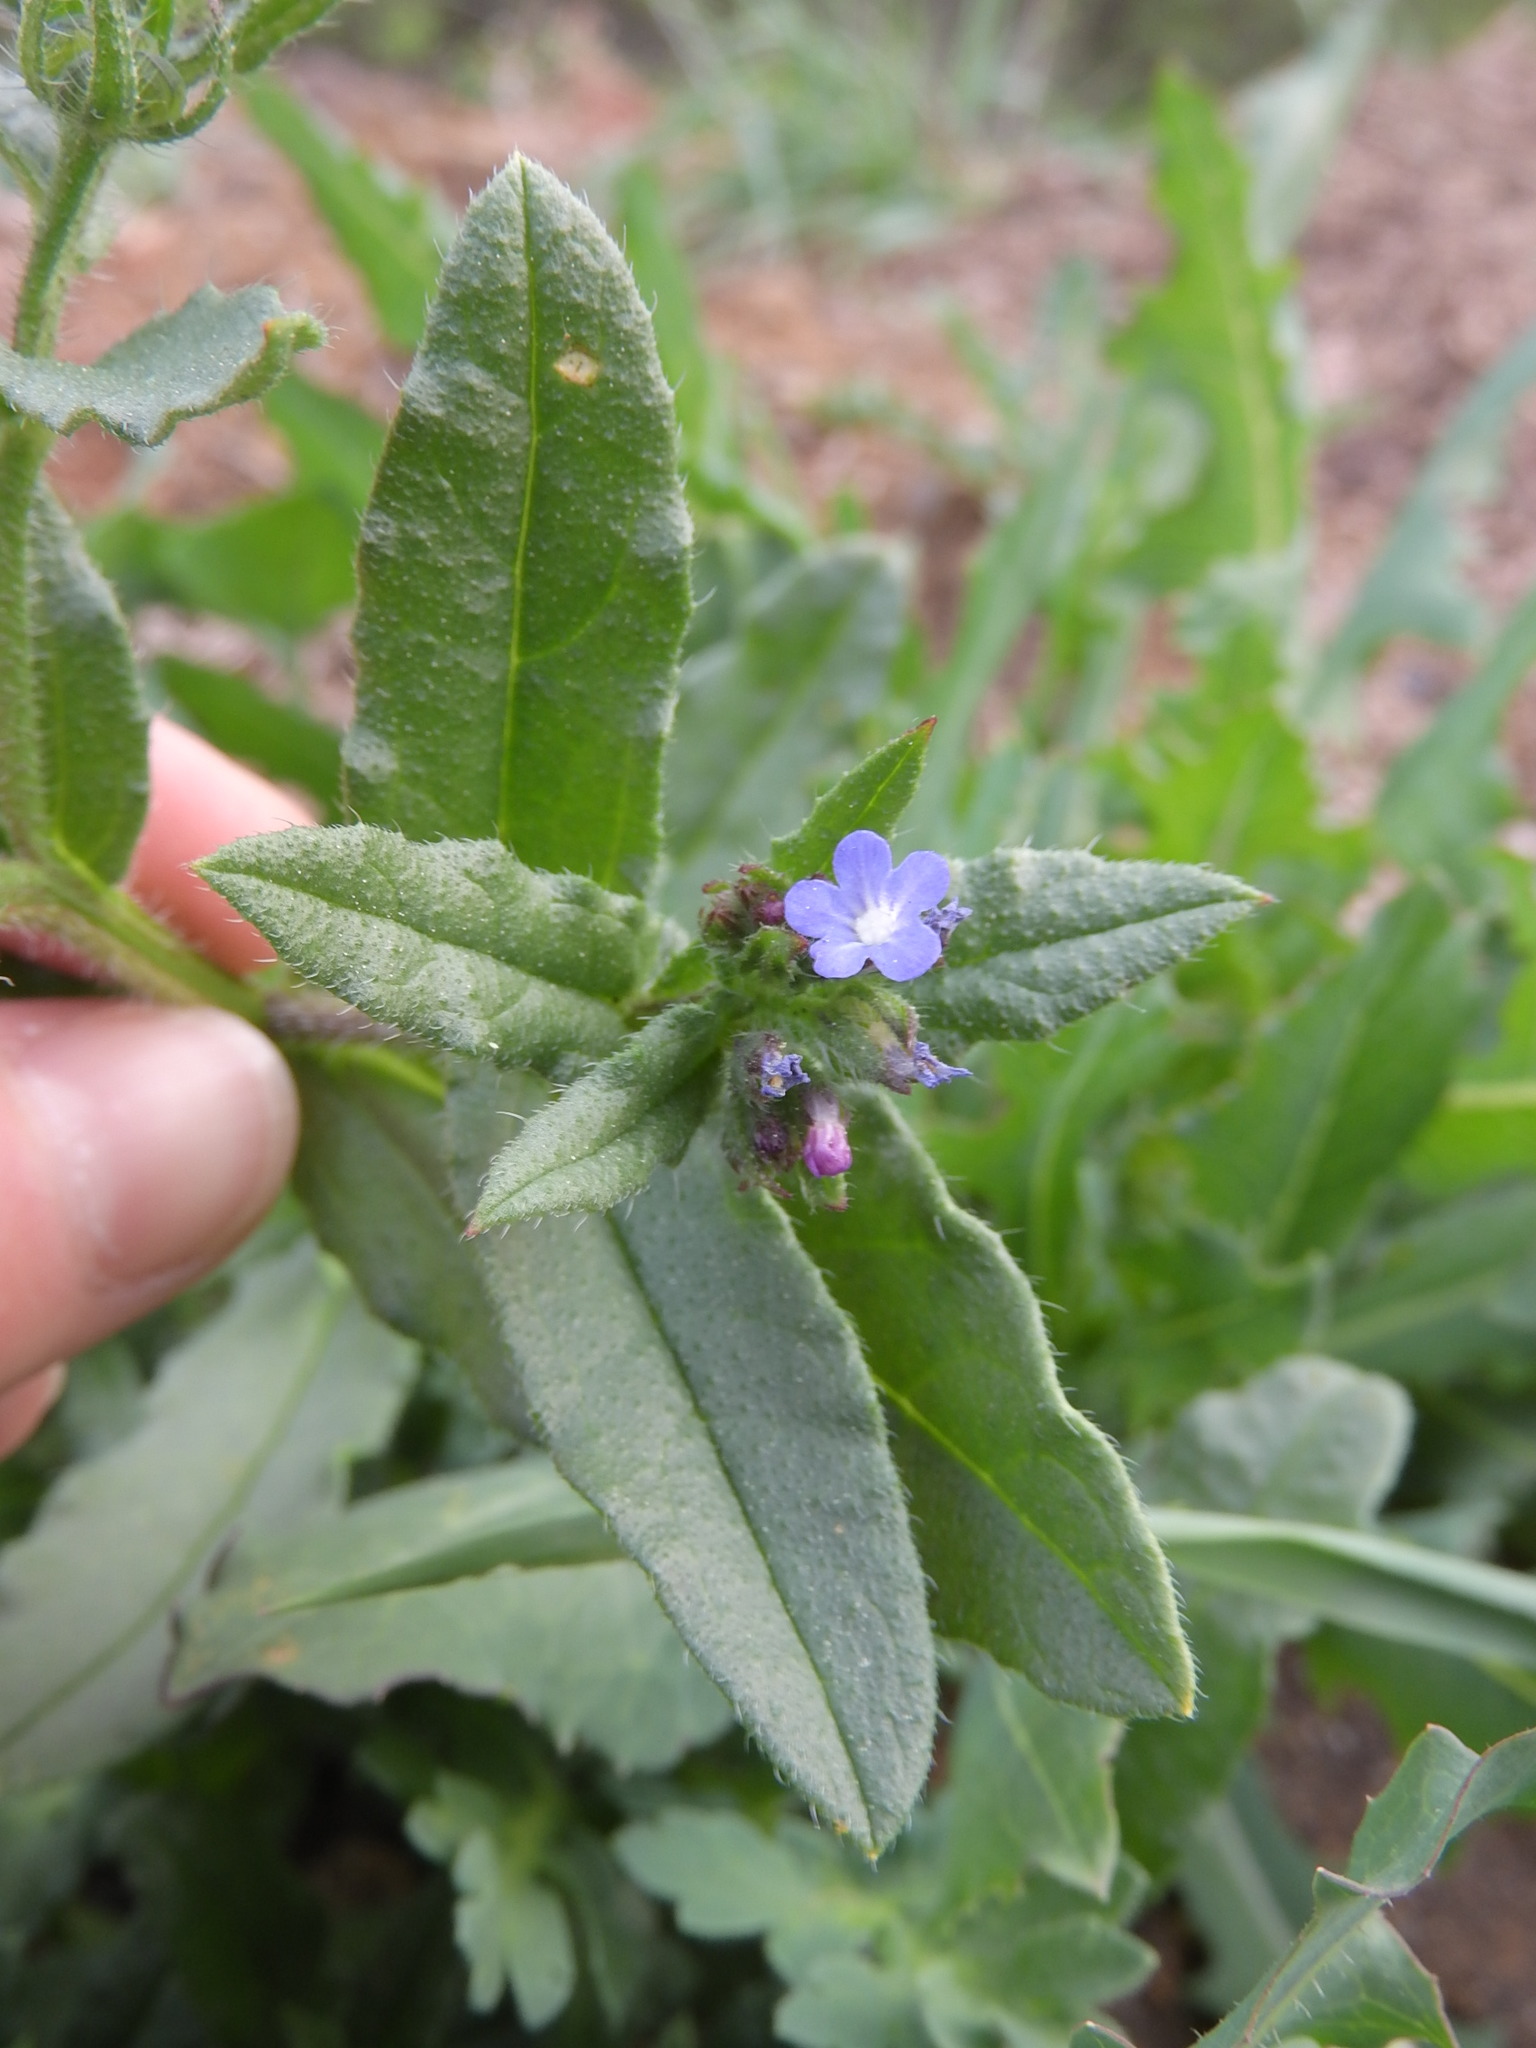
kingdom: Plantae
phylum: Tracheophyta
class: Magnoliopsida
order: Boraginales
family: Boraginaceae
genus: Lycopsis
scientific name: Lycopsis arvensis
